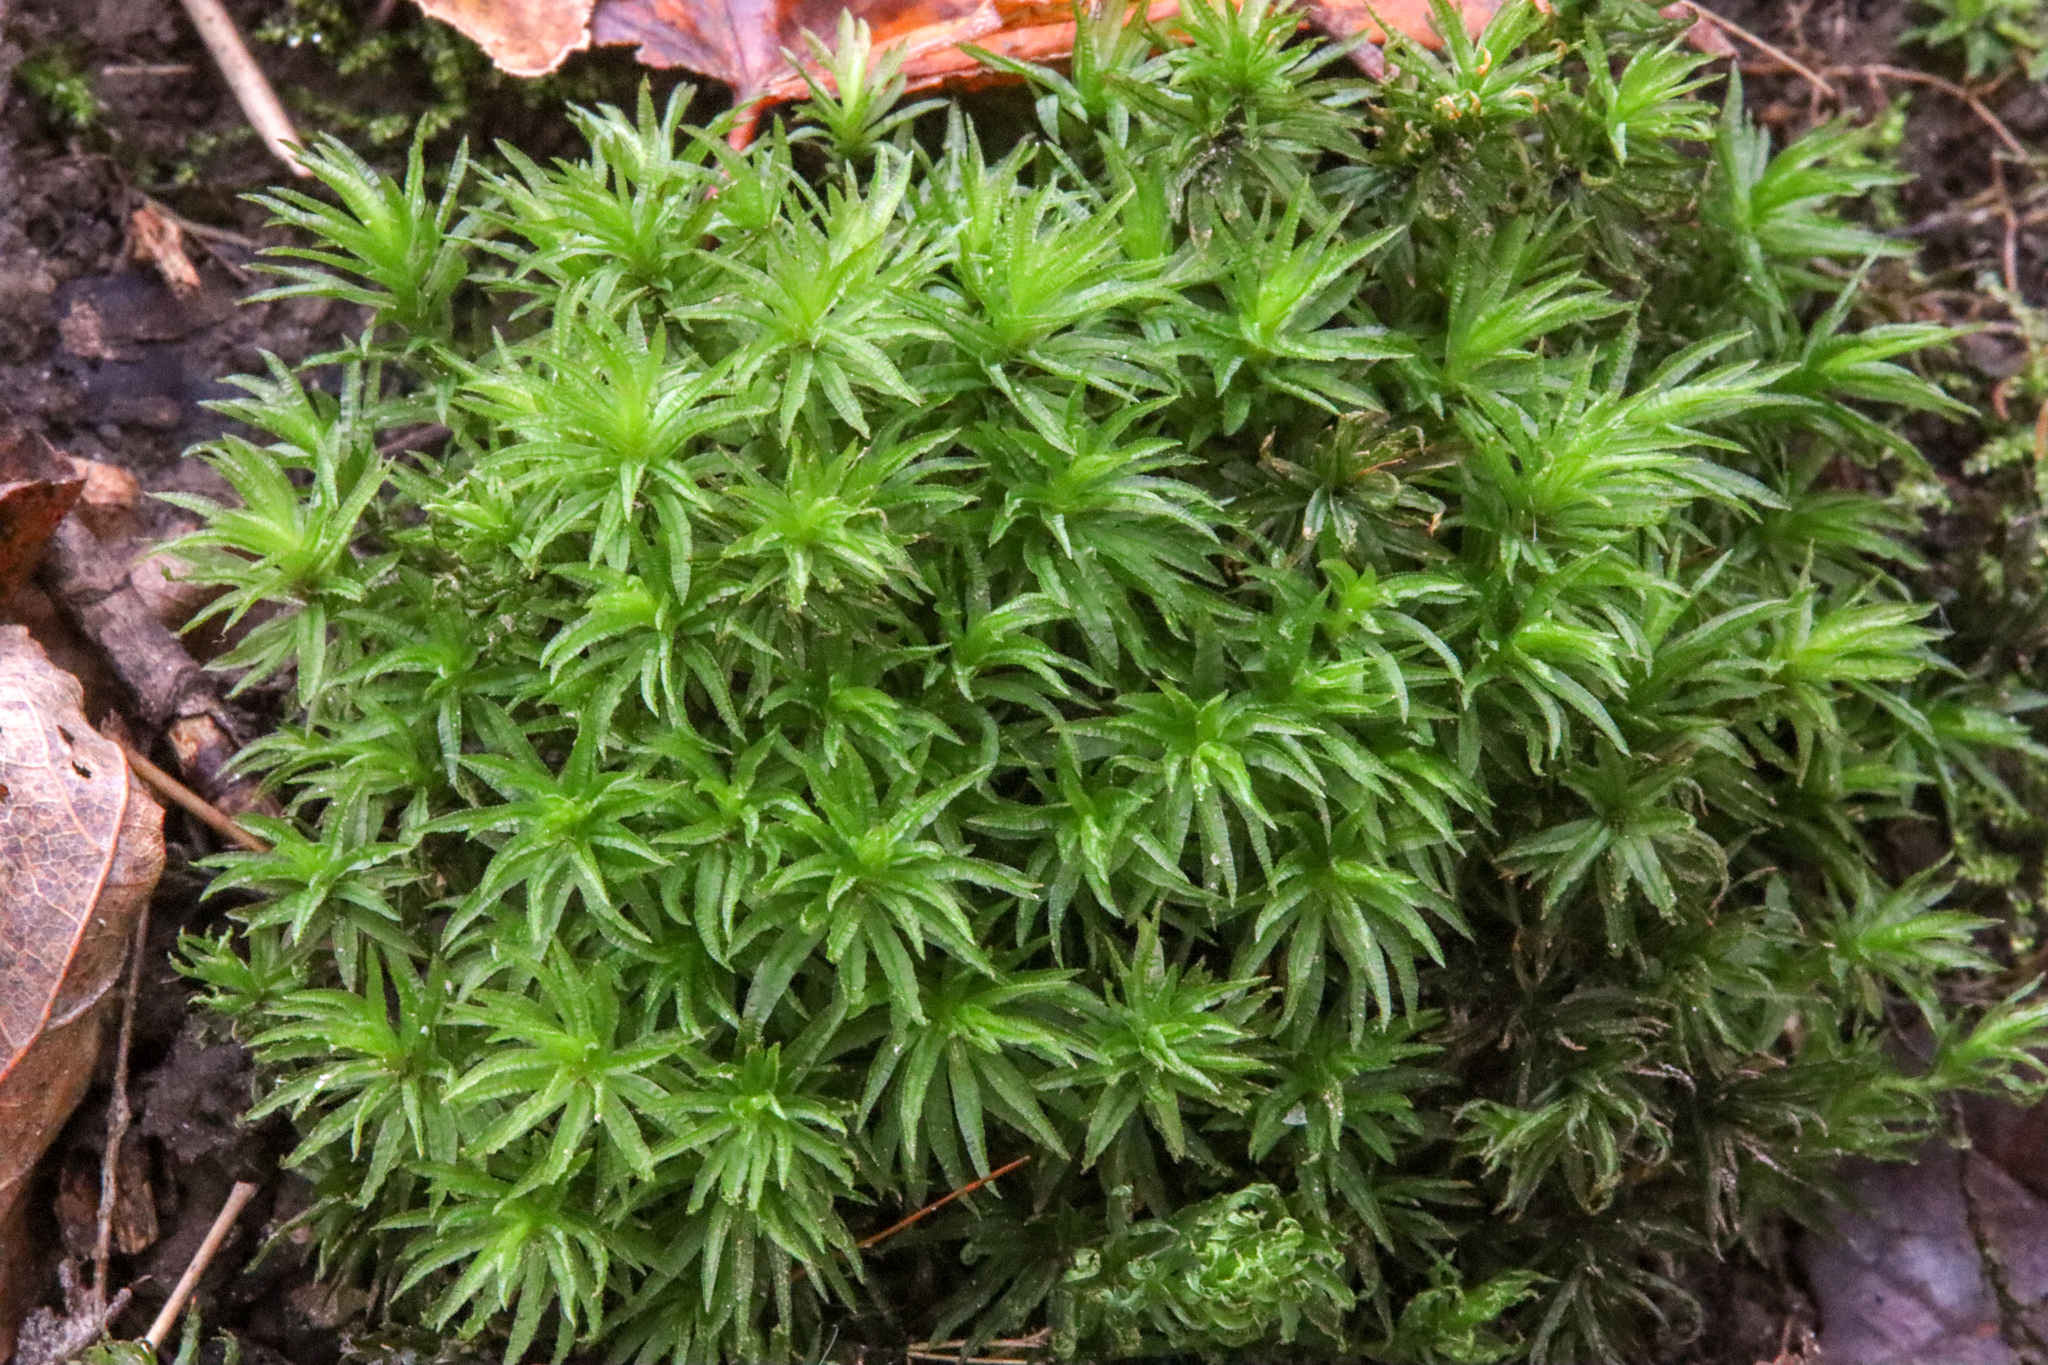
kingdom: Plantae
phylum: Bryophyta
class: Polytrichopsida
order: Polytrichales
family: Polytrichaceae
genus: Atrichum
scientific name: Atrichum undulatum
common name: Common smoothcap
